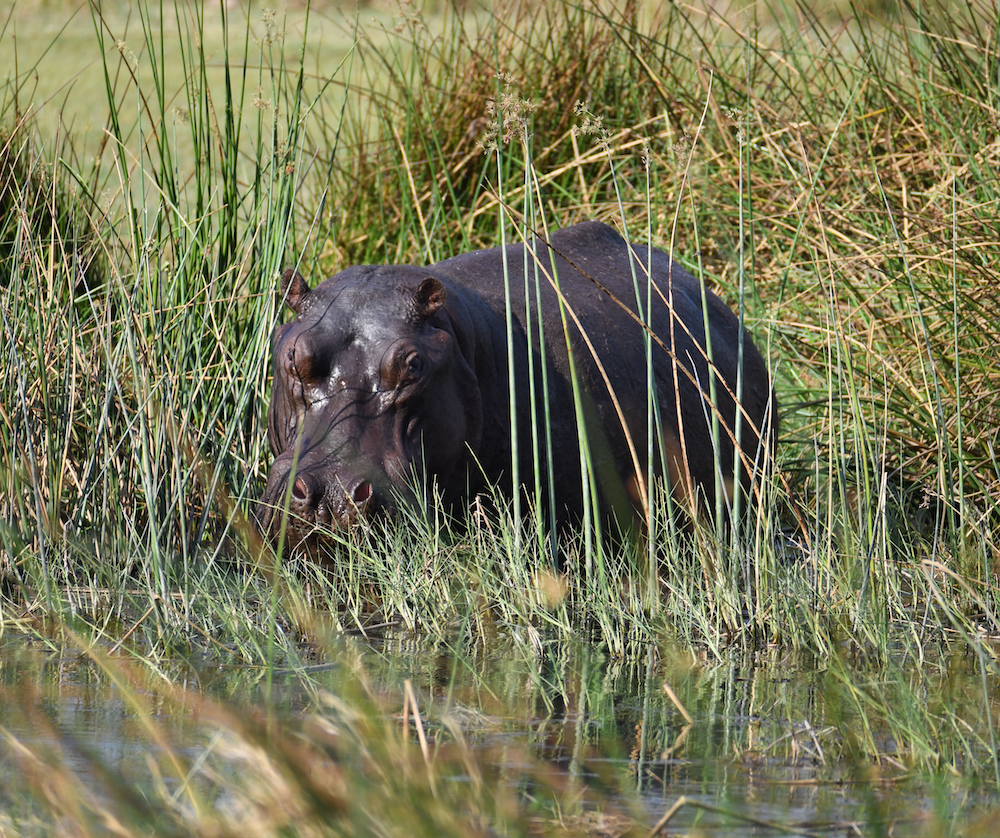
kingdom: Animalia
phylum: Chordata
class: Mammalia
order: Artiodactyla
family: Hippopotamidae
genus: Hippopotamus
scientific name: Hippopotamus amphibius
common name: Common hippopotamus
